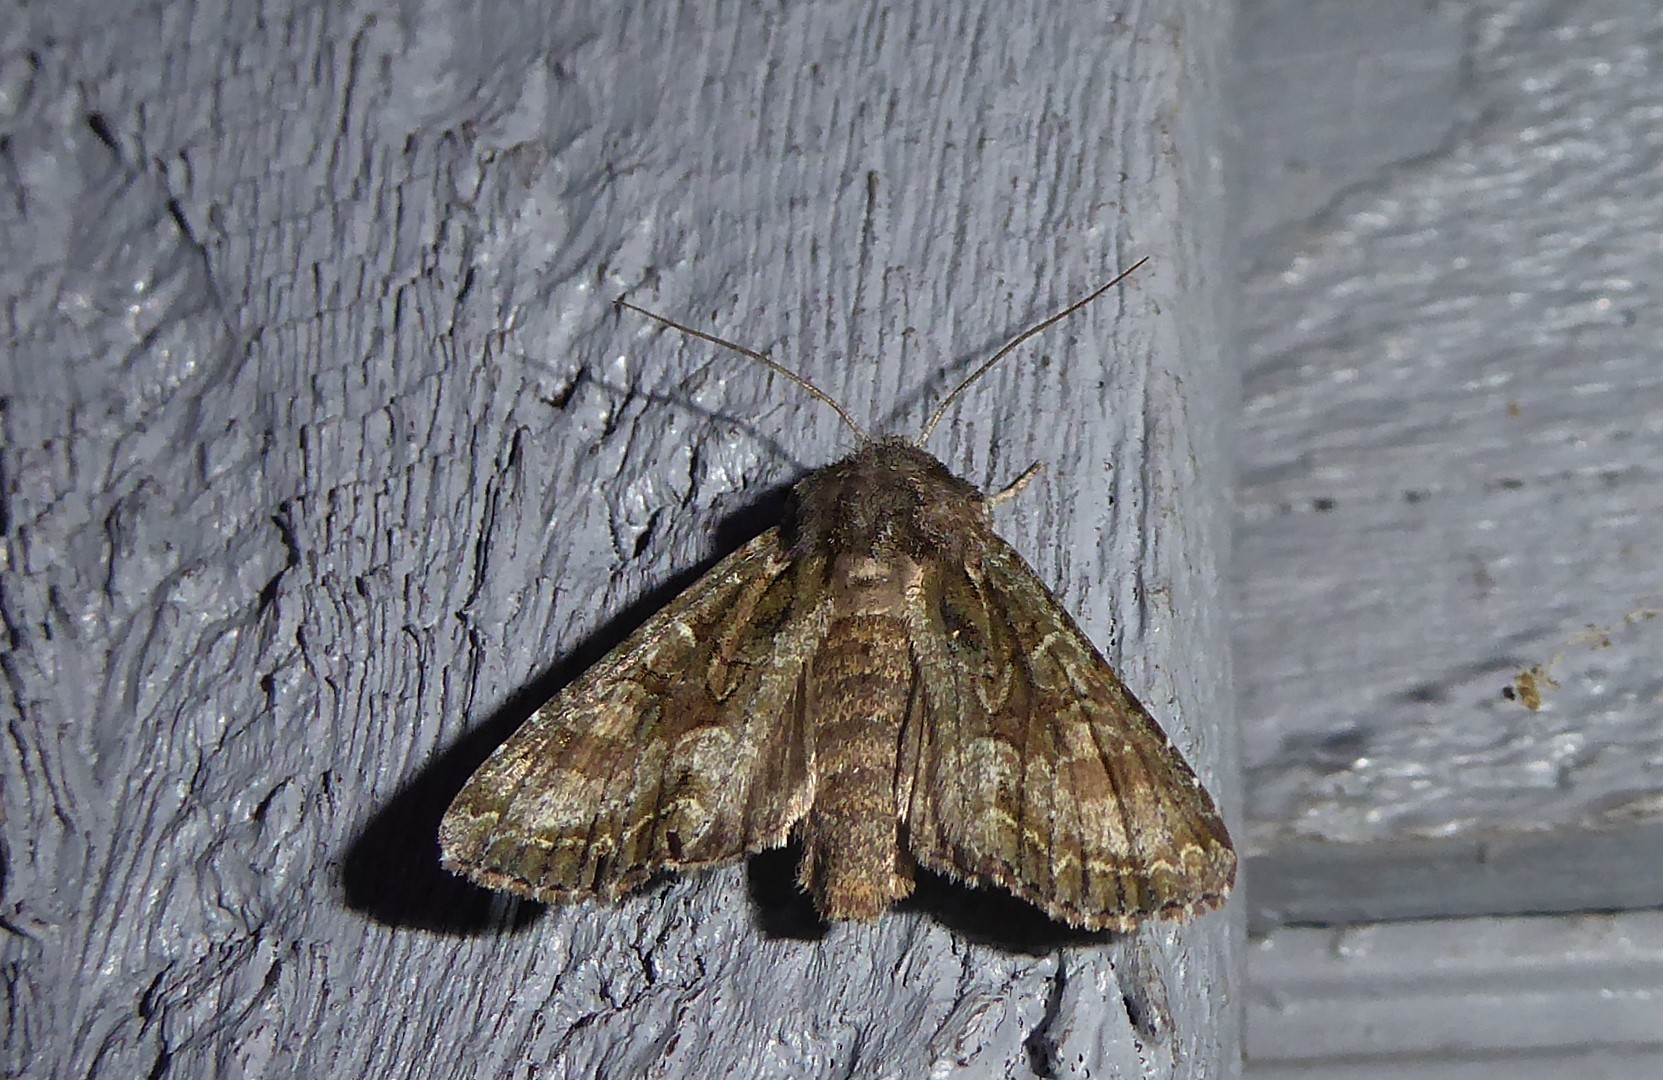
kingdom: Animalia
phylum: Arthropoda
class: Insecta
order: Lepidoptera
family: Noctuidae
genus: Ichneutica
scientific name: Ichneutica mutans
